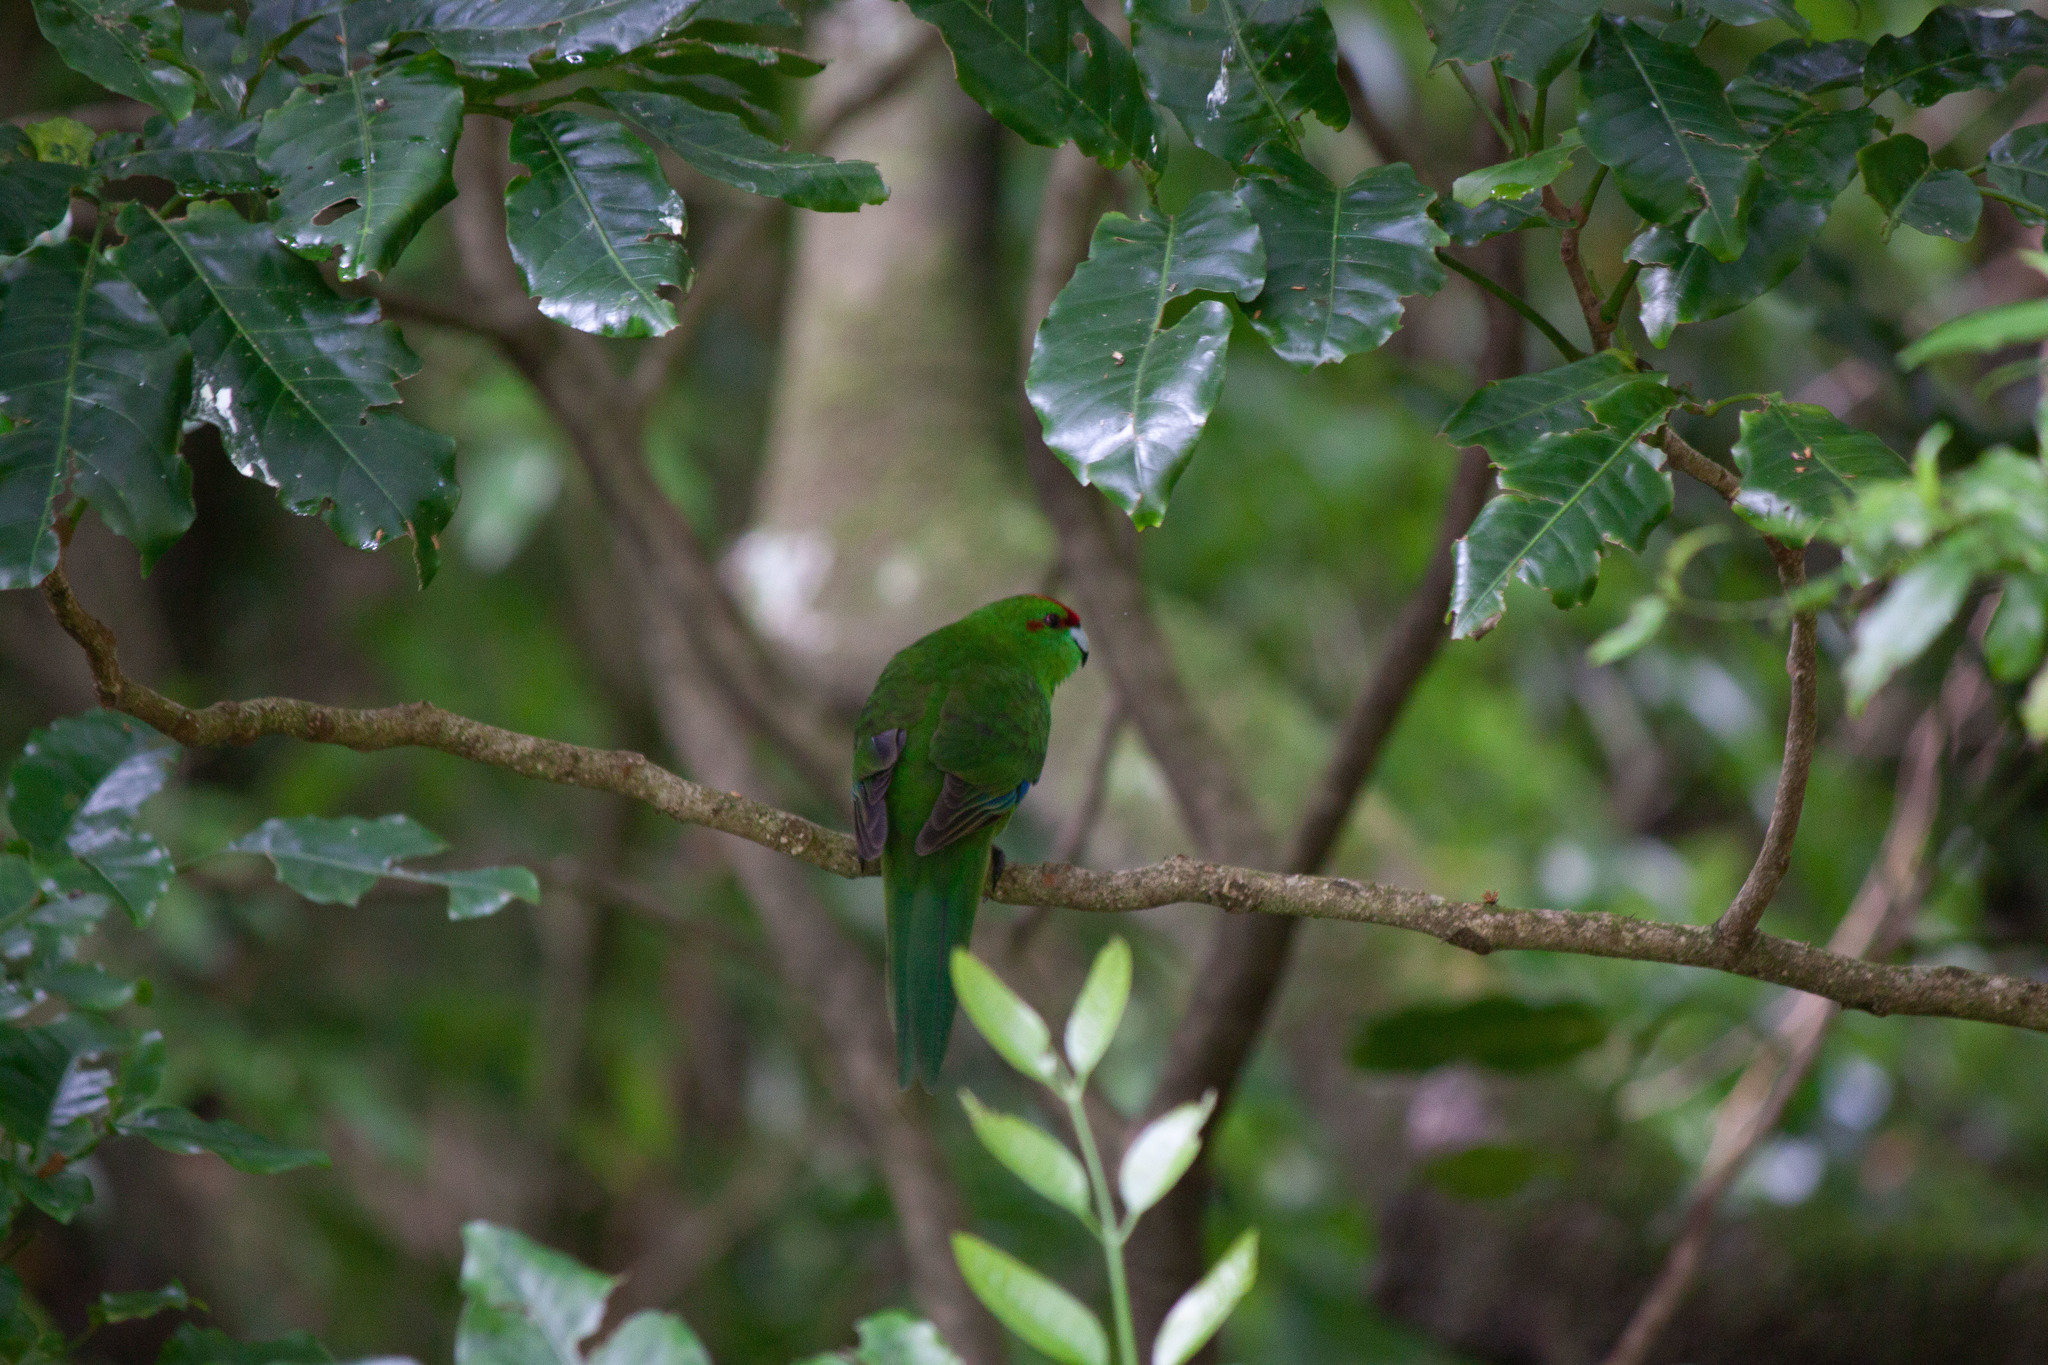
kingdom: Animalia
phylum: Chordata
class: Aves
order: Psittaciformes
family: Psittacidae
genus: Cyanoramphus
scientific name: Cyanoramphus novaezelandiae
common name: Red-fronted parakeet
